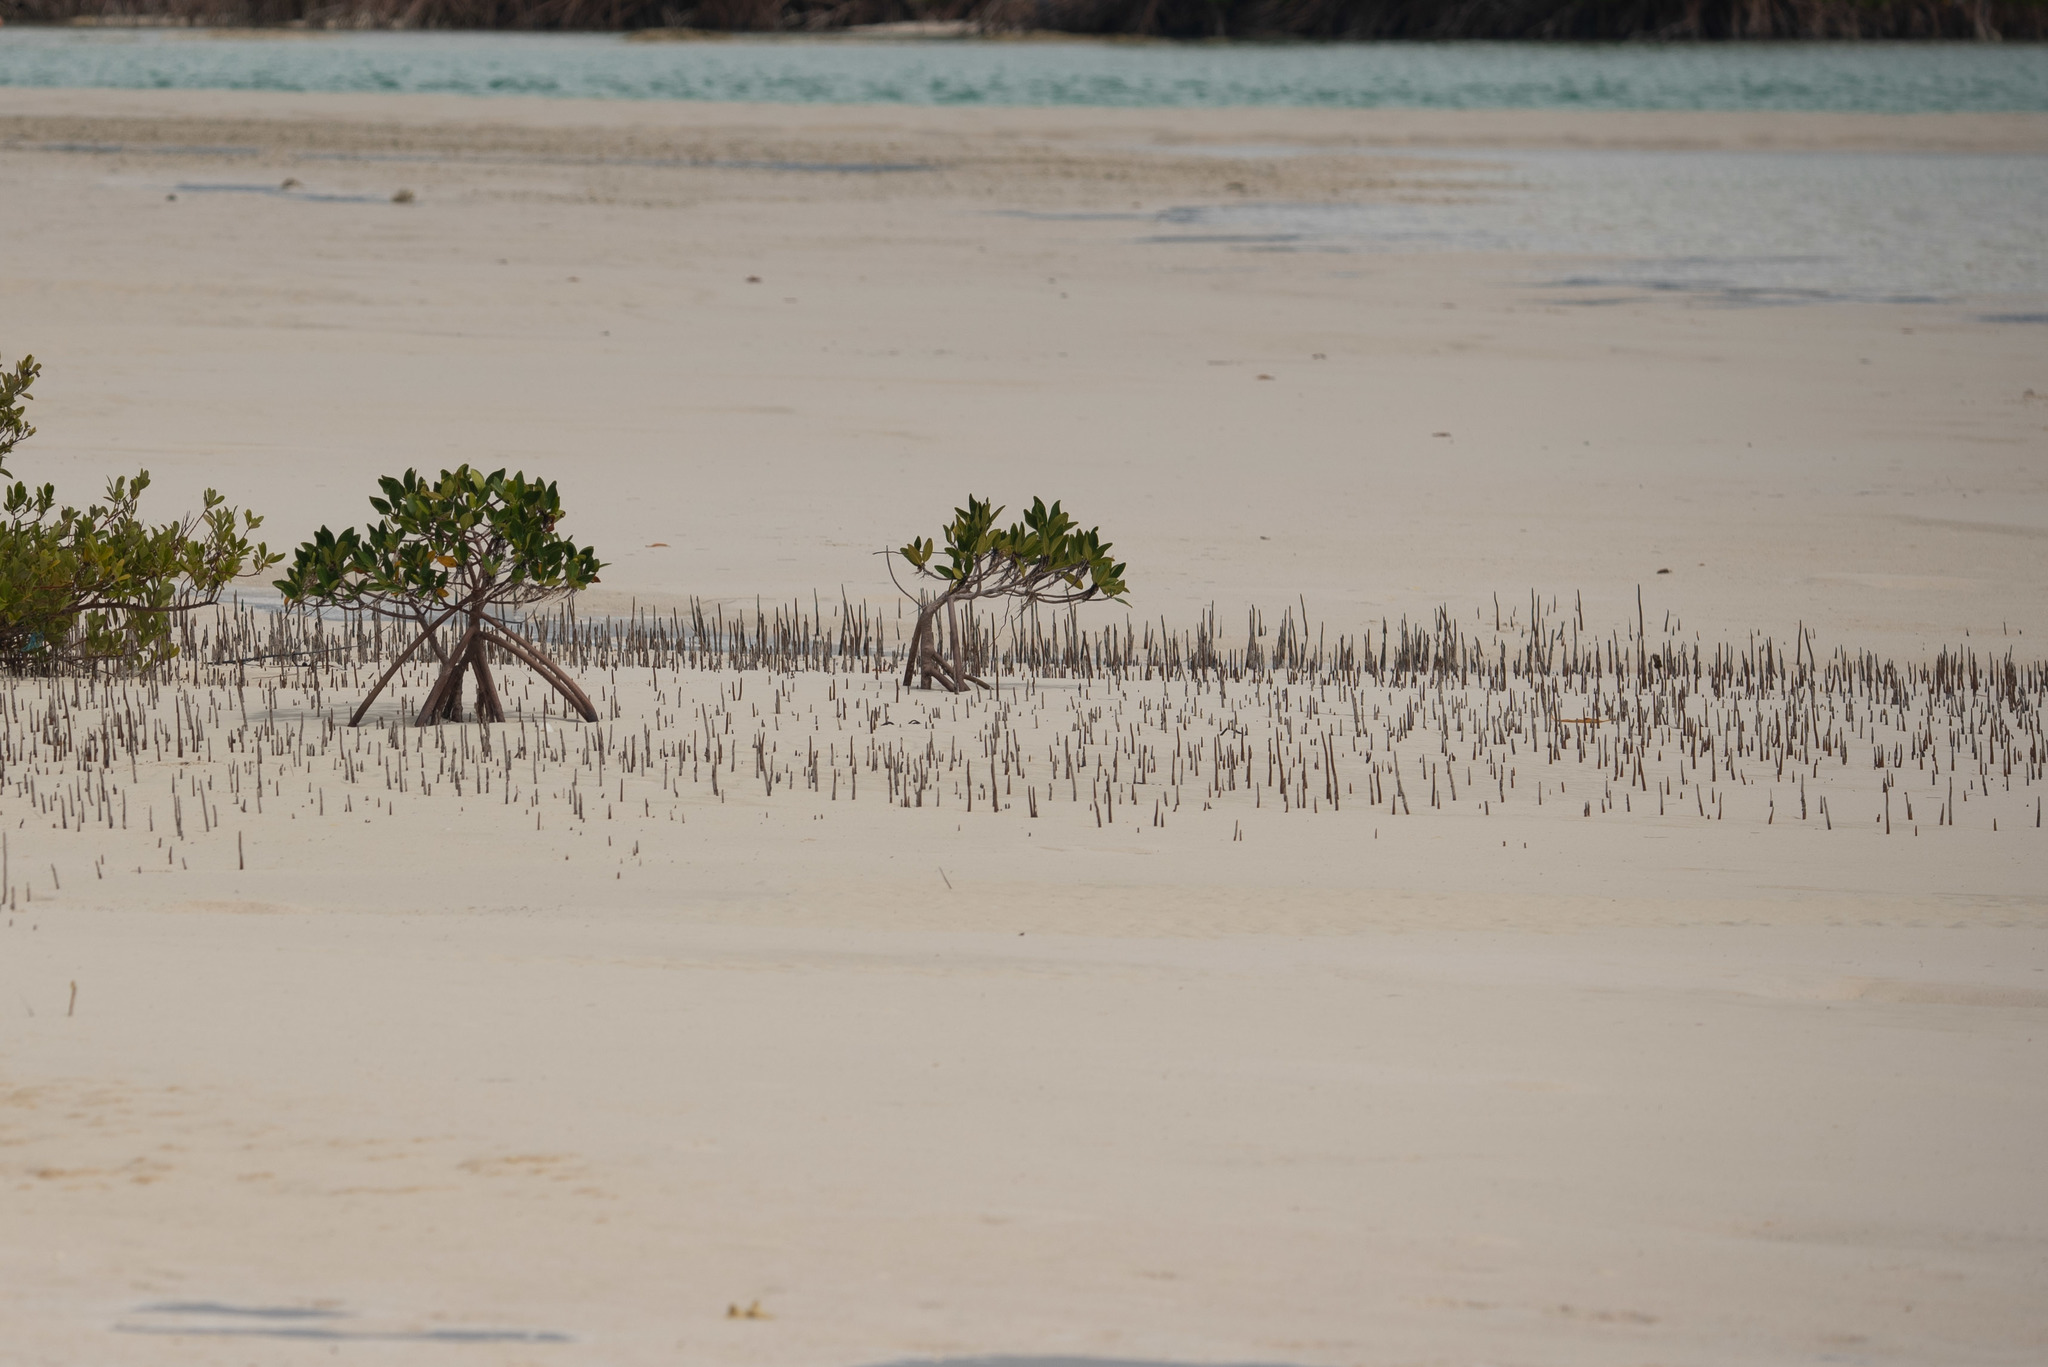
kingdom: Plantae
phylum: Tracheophyta
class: Magnoliopsida
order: Malpighiales
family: Rhizophoraceae
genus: Rhizophora
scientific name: Rhizophora mangle
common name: Red mangrove
